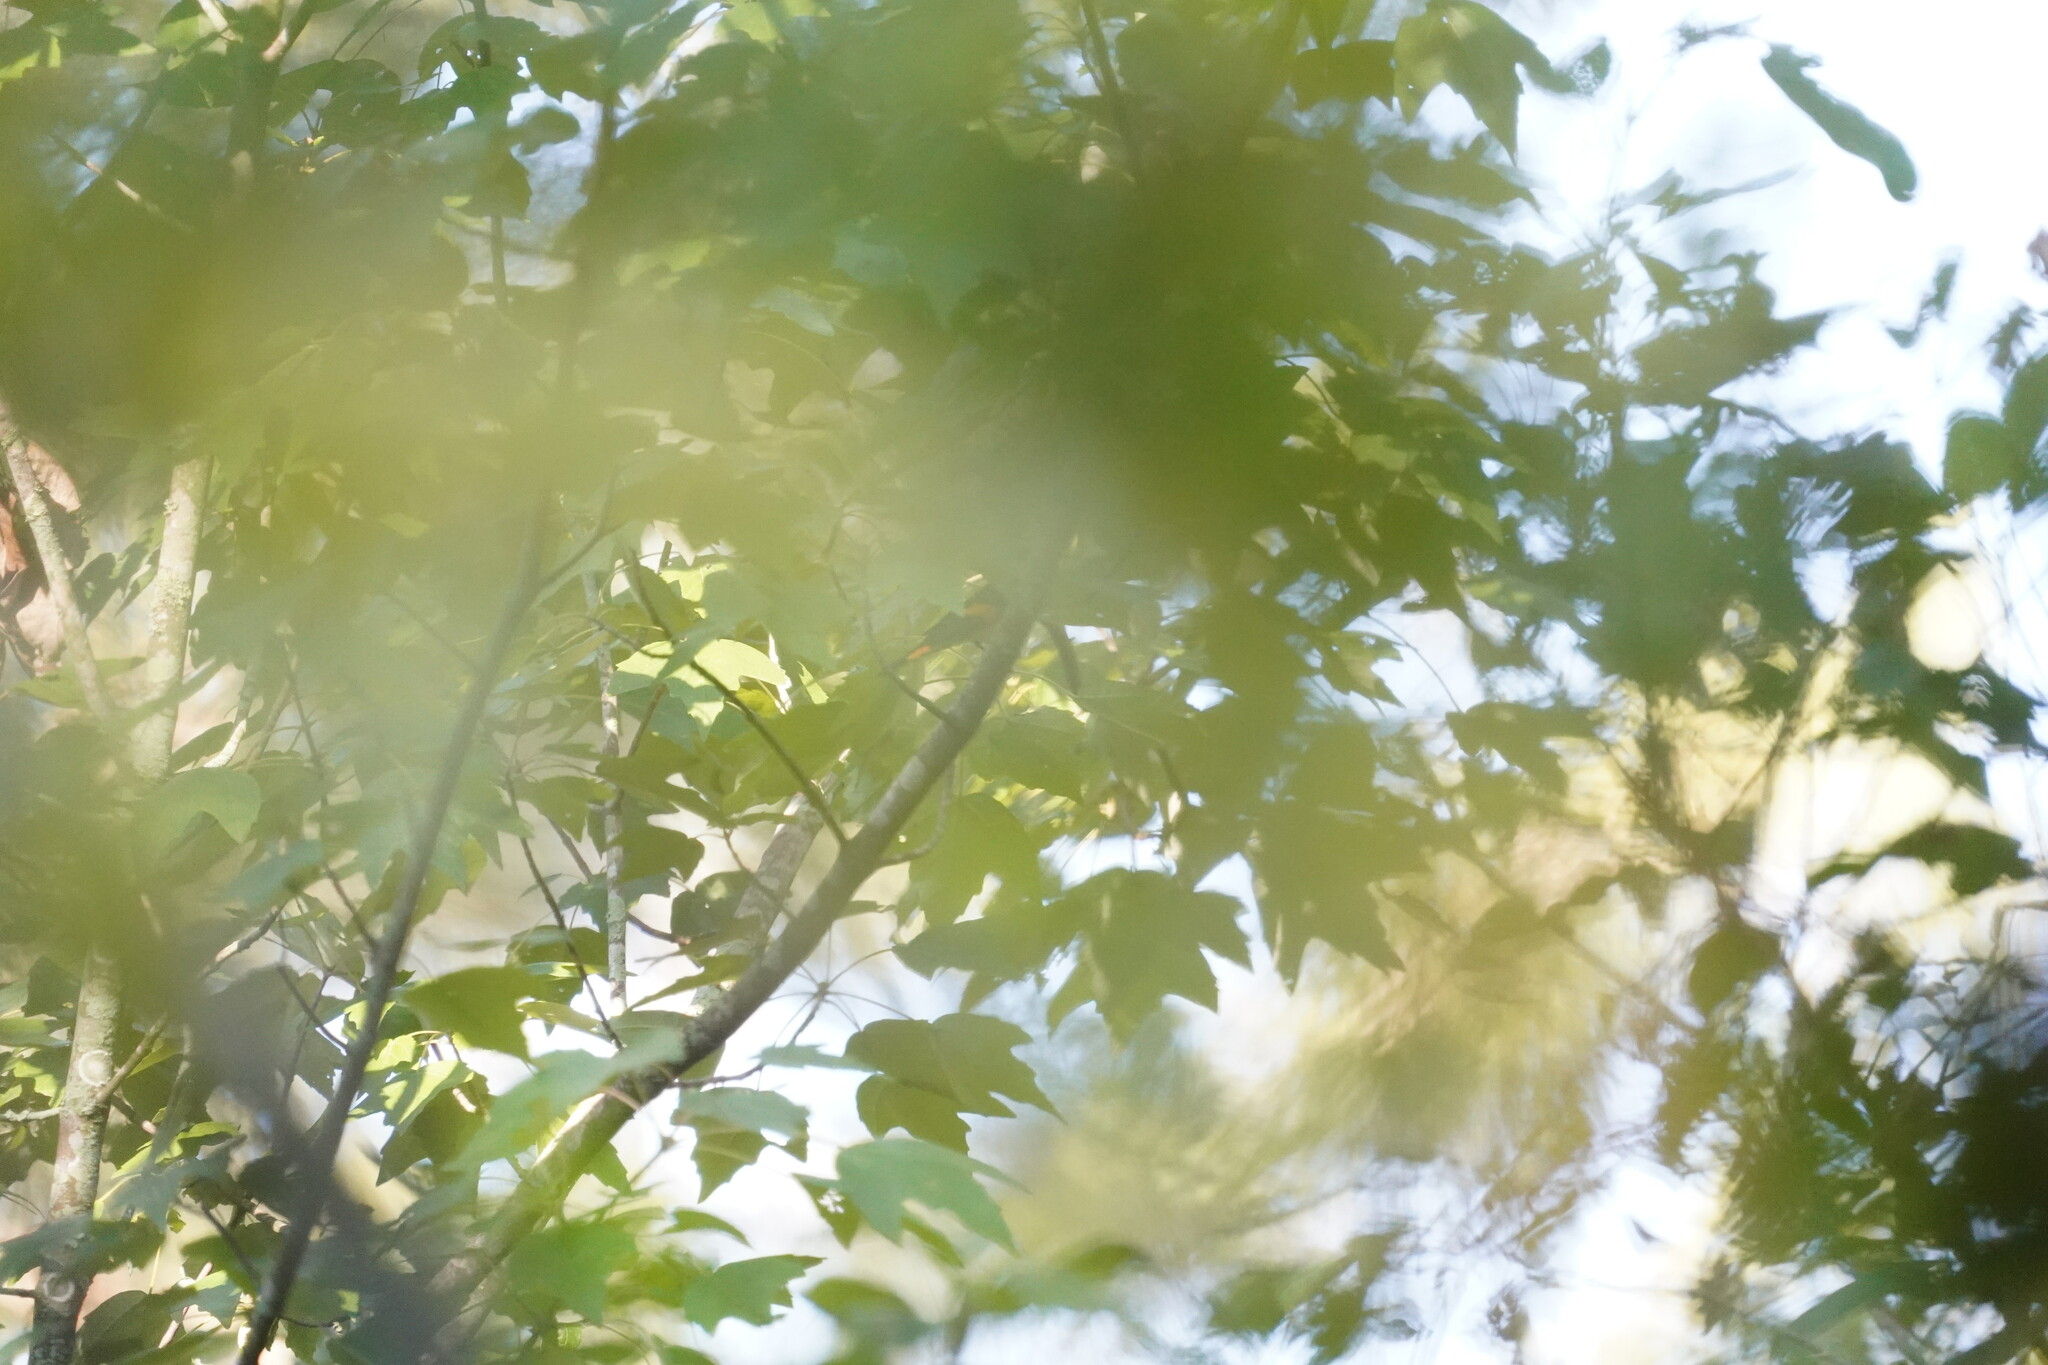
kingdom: Animalia
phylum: Chordata
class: Aves
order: Passeriformes
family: Parulidae
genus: Setophaga
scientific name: Setophaga ruticilla
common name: American redstart
